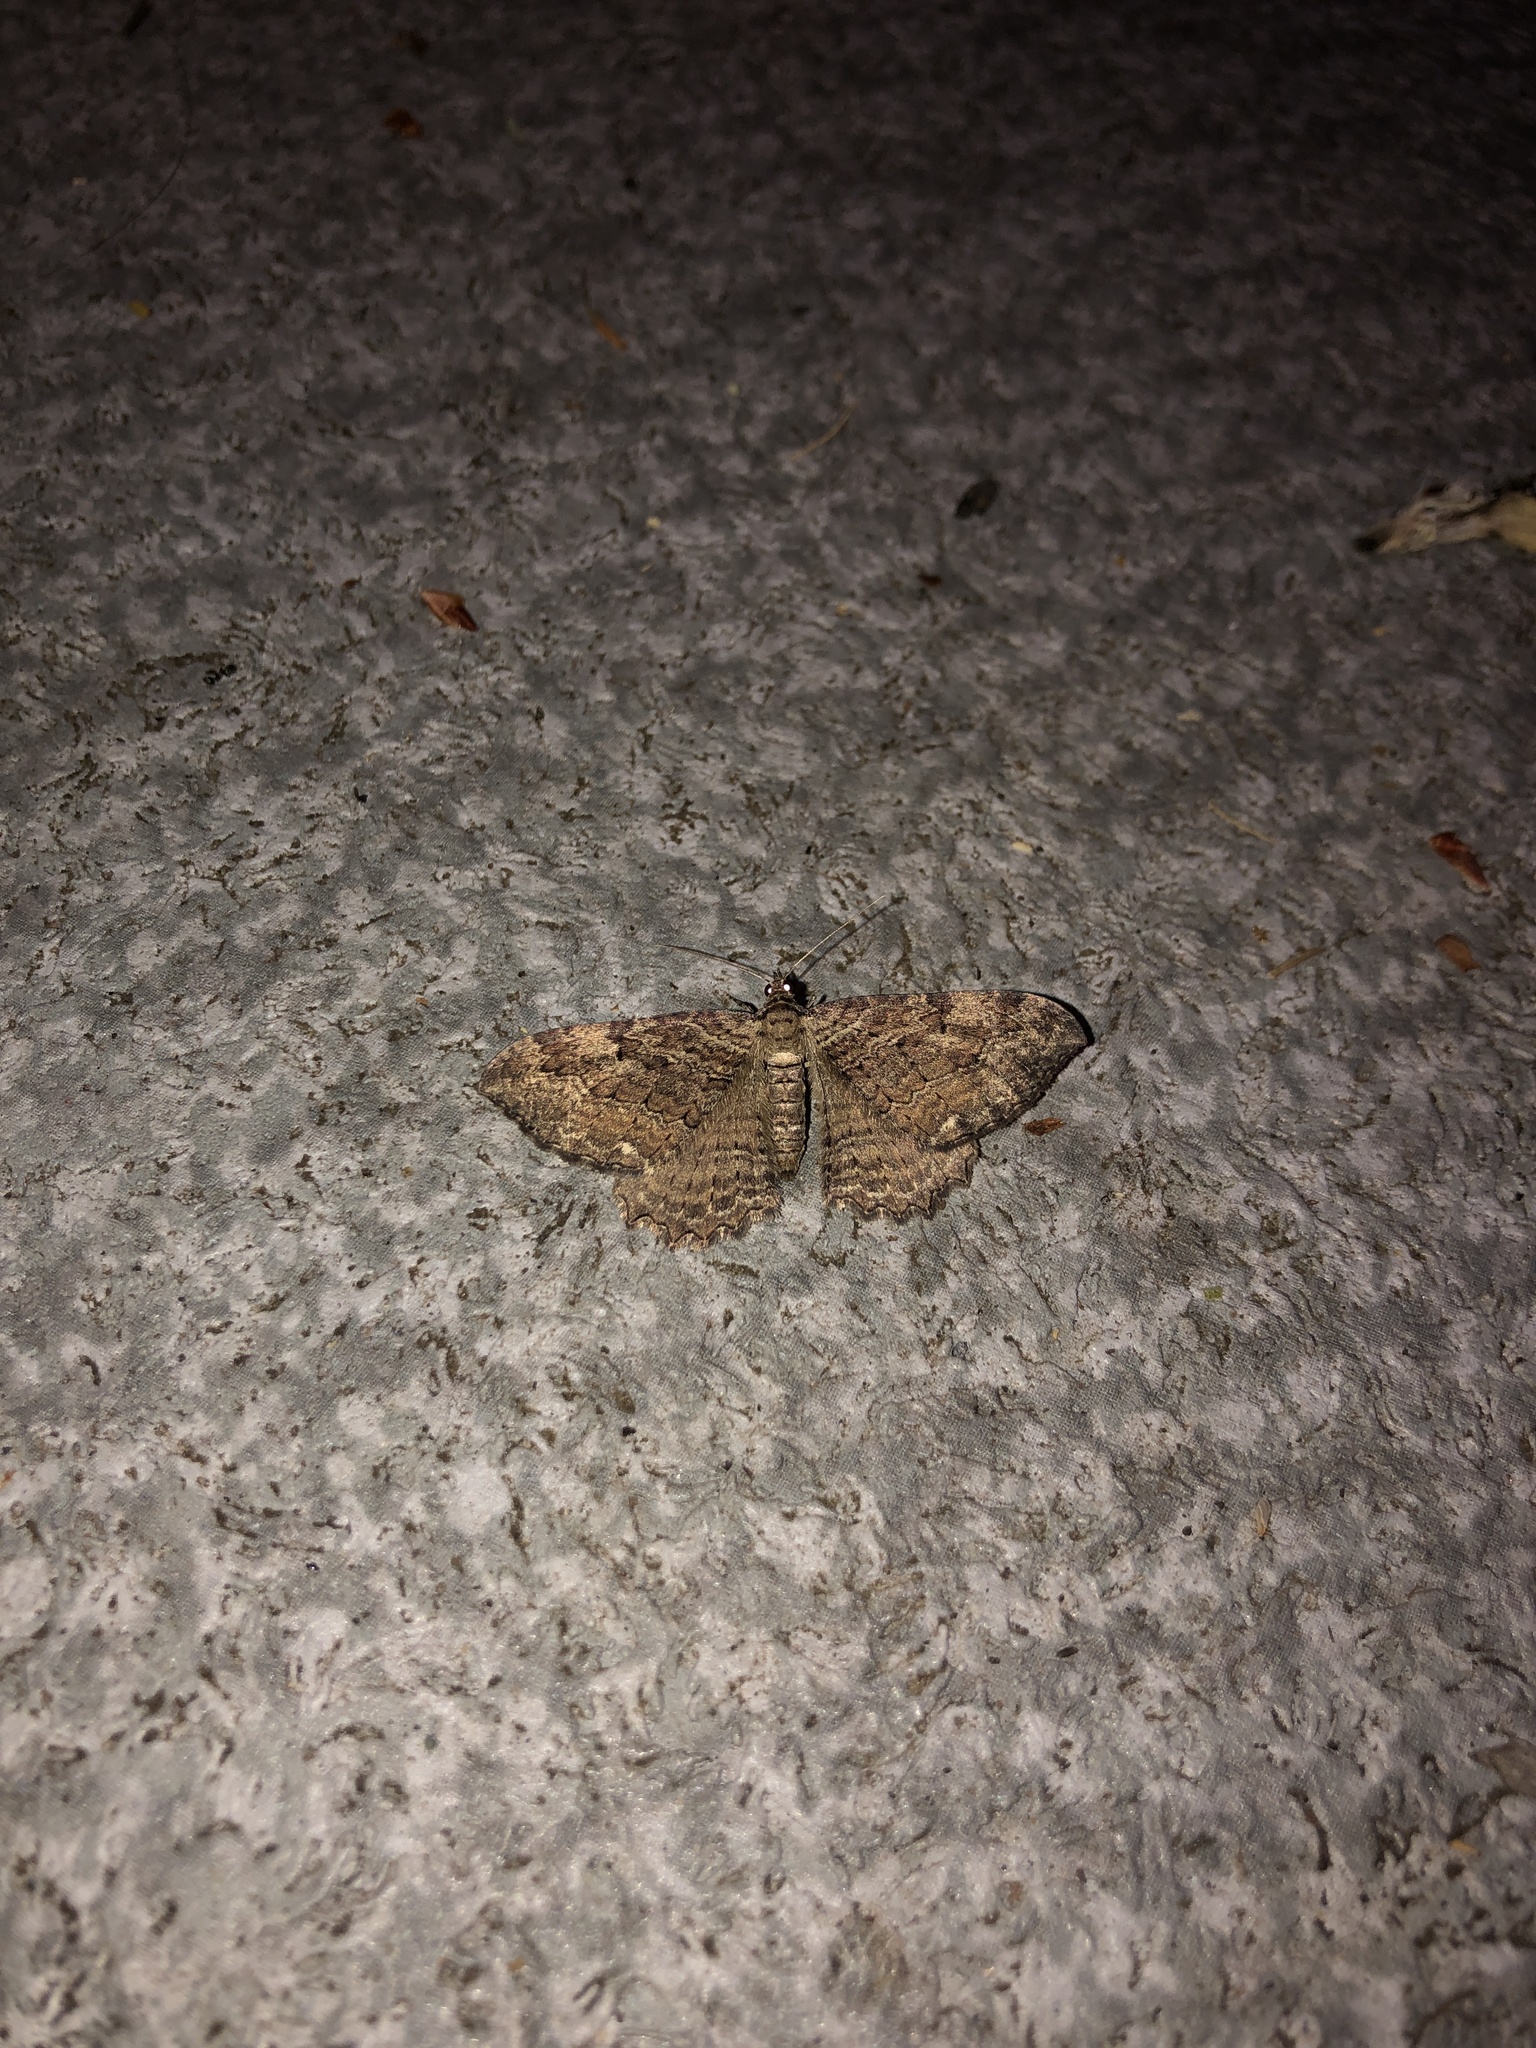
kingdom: Animalia
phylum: Arthropoda
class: Insecta
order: Lepidoptera
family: Geometridae
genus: Rheumaptera
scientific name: Rheumaptera
